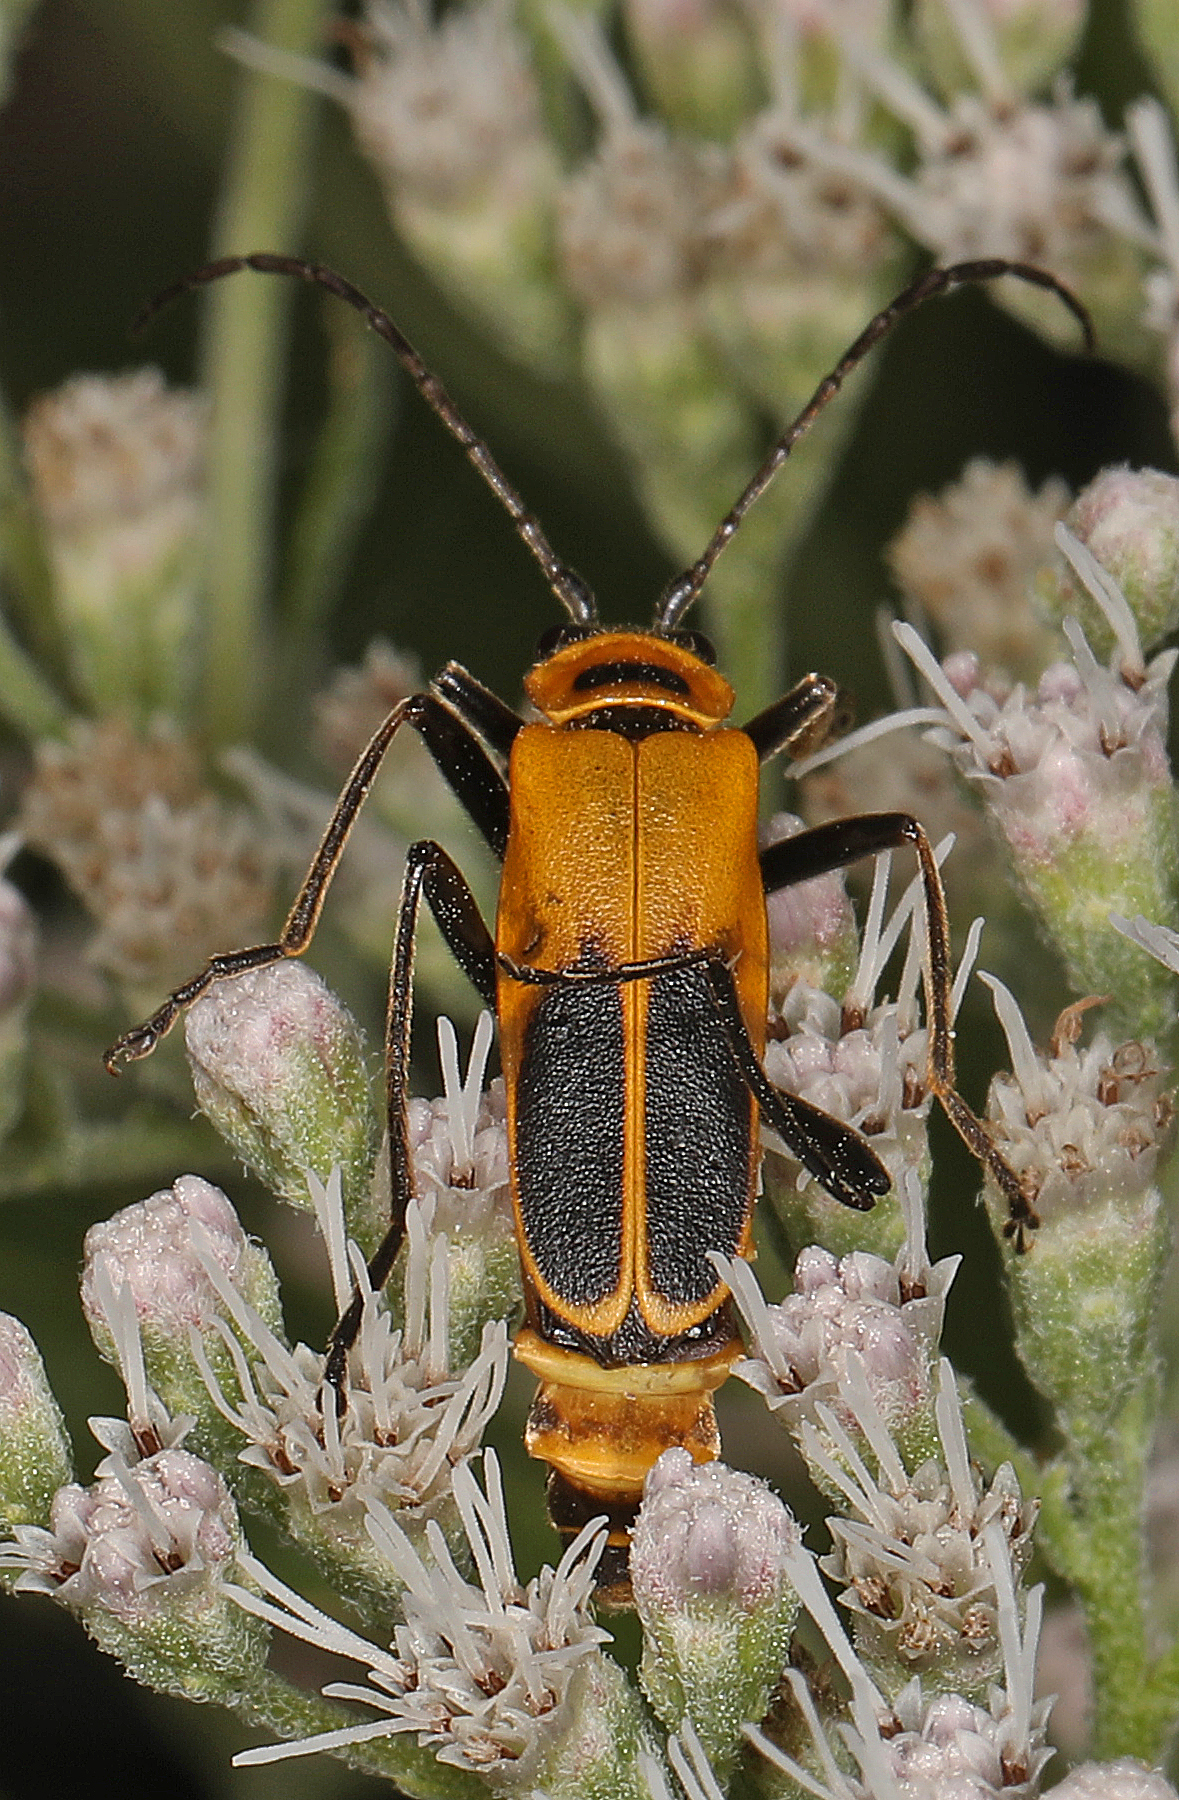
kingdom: Animalia
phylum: Arthropoda
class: Insecta
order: Coleoptera
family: Cantharidae
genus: Chauliognathus
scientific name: Chauliognathus pensylvanicus
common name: Goldenrod soldier beetle
